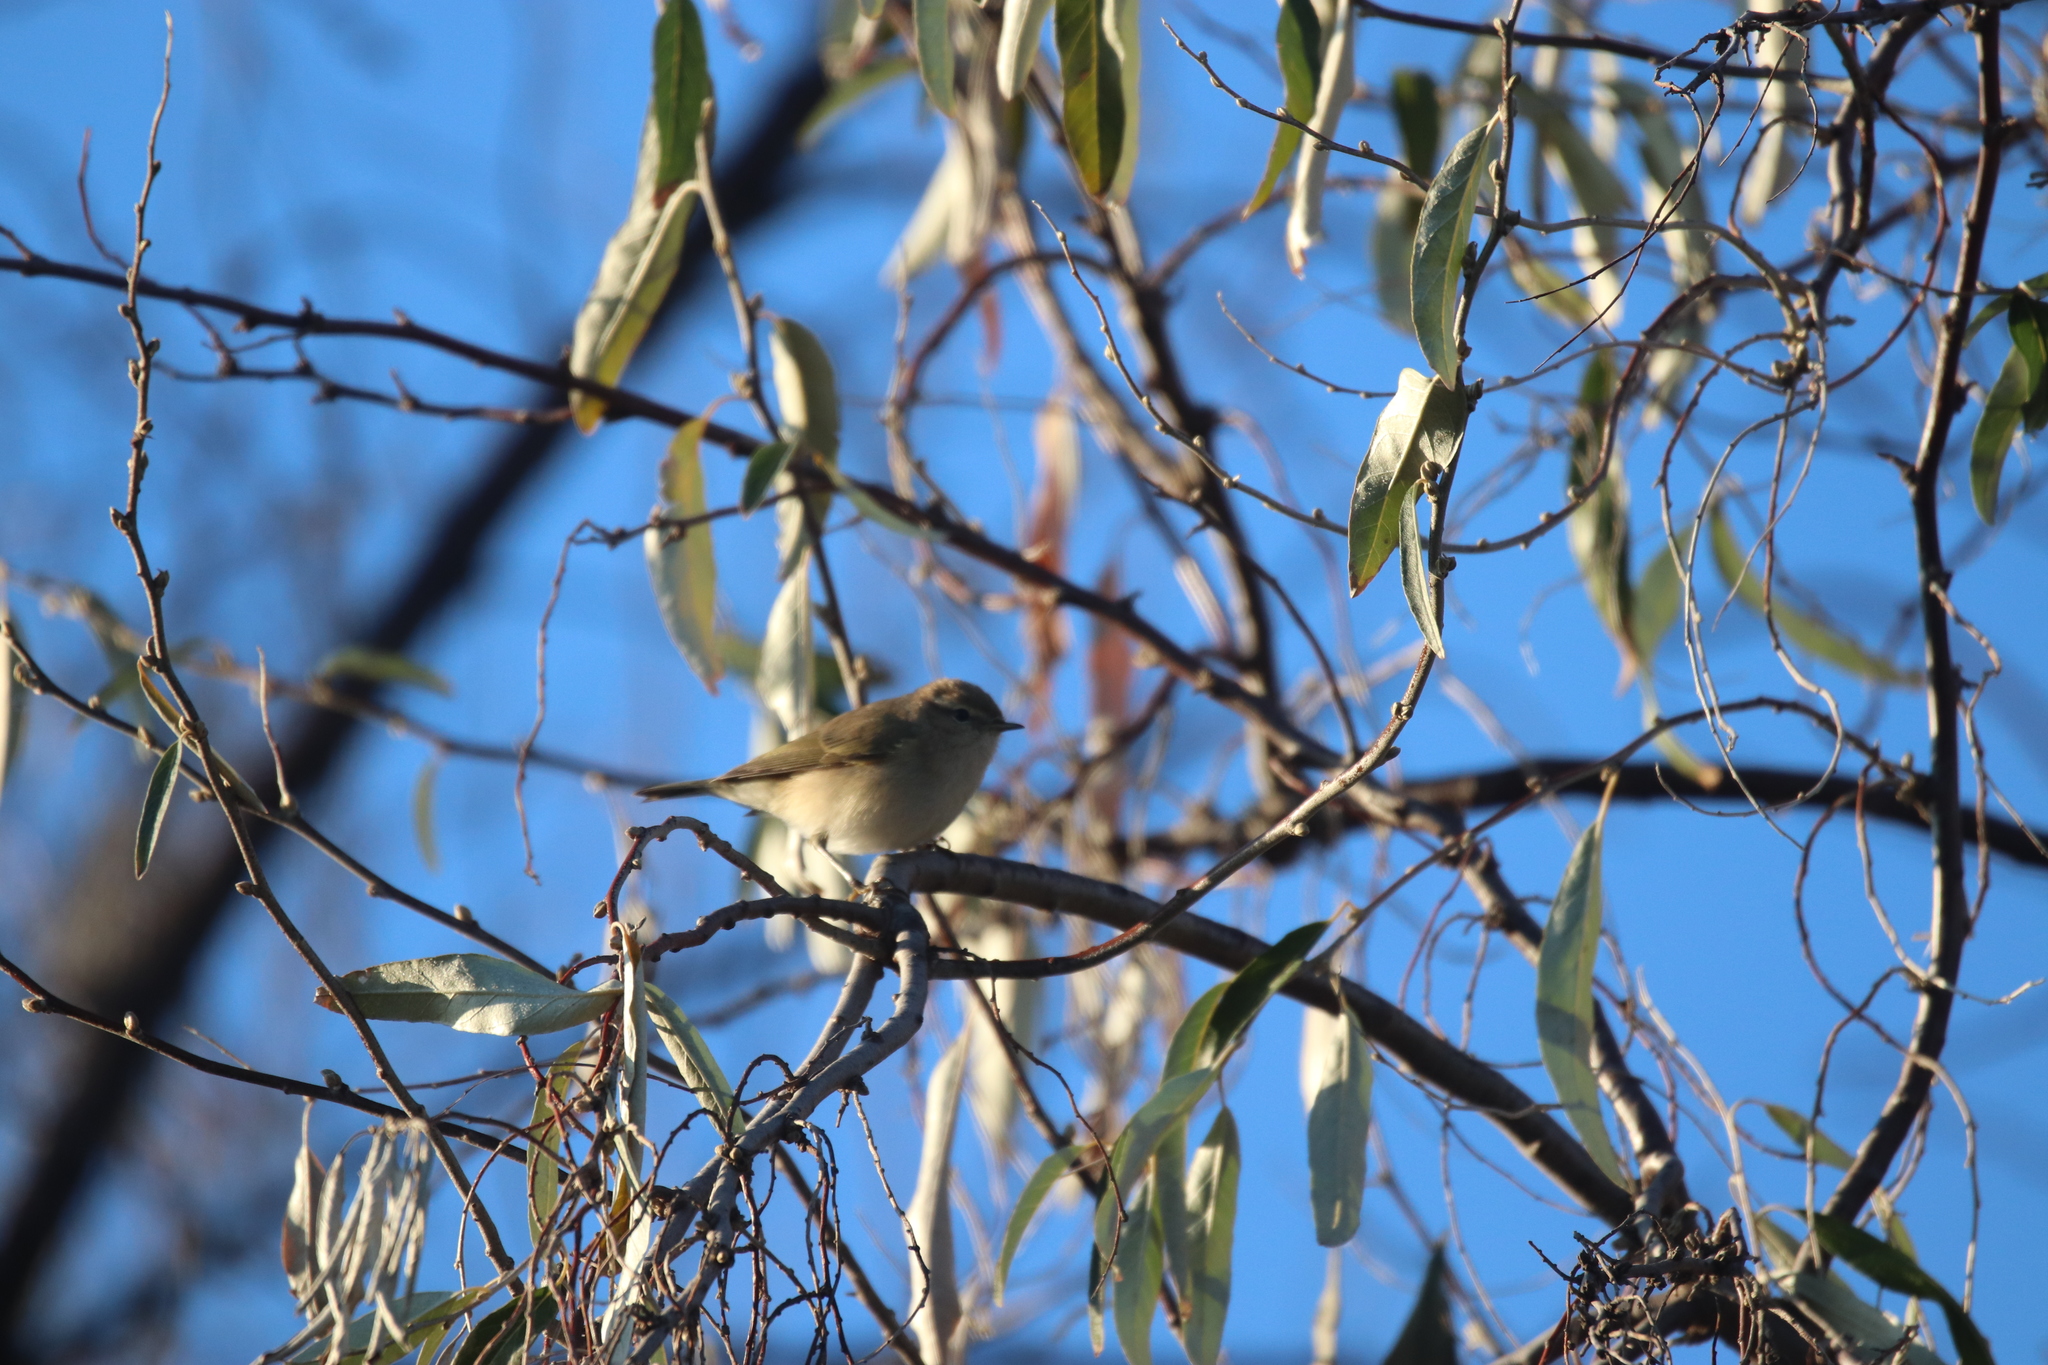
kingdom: Animalia
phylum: Chordata
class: Aves
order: Passeriformes
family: Phylloscopidae
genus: Phylloscopus
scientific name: Phylloscopus collybita
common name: Common chiffchaff
